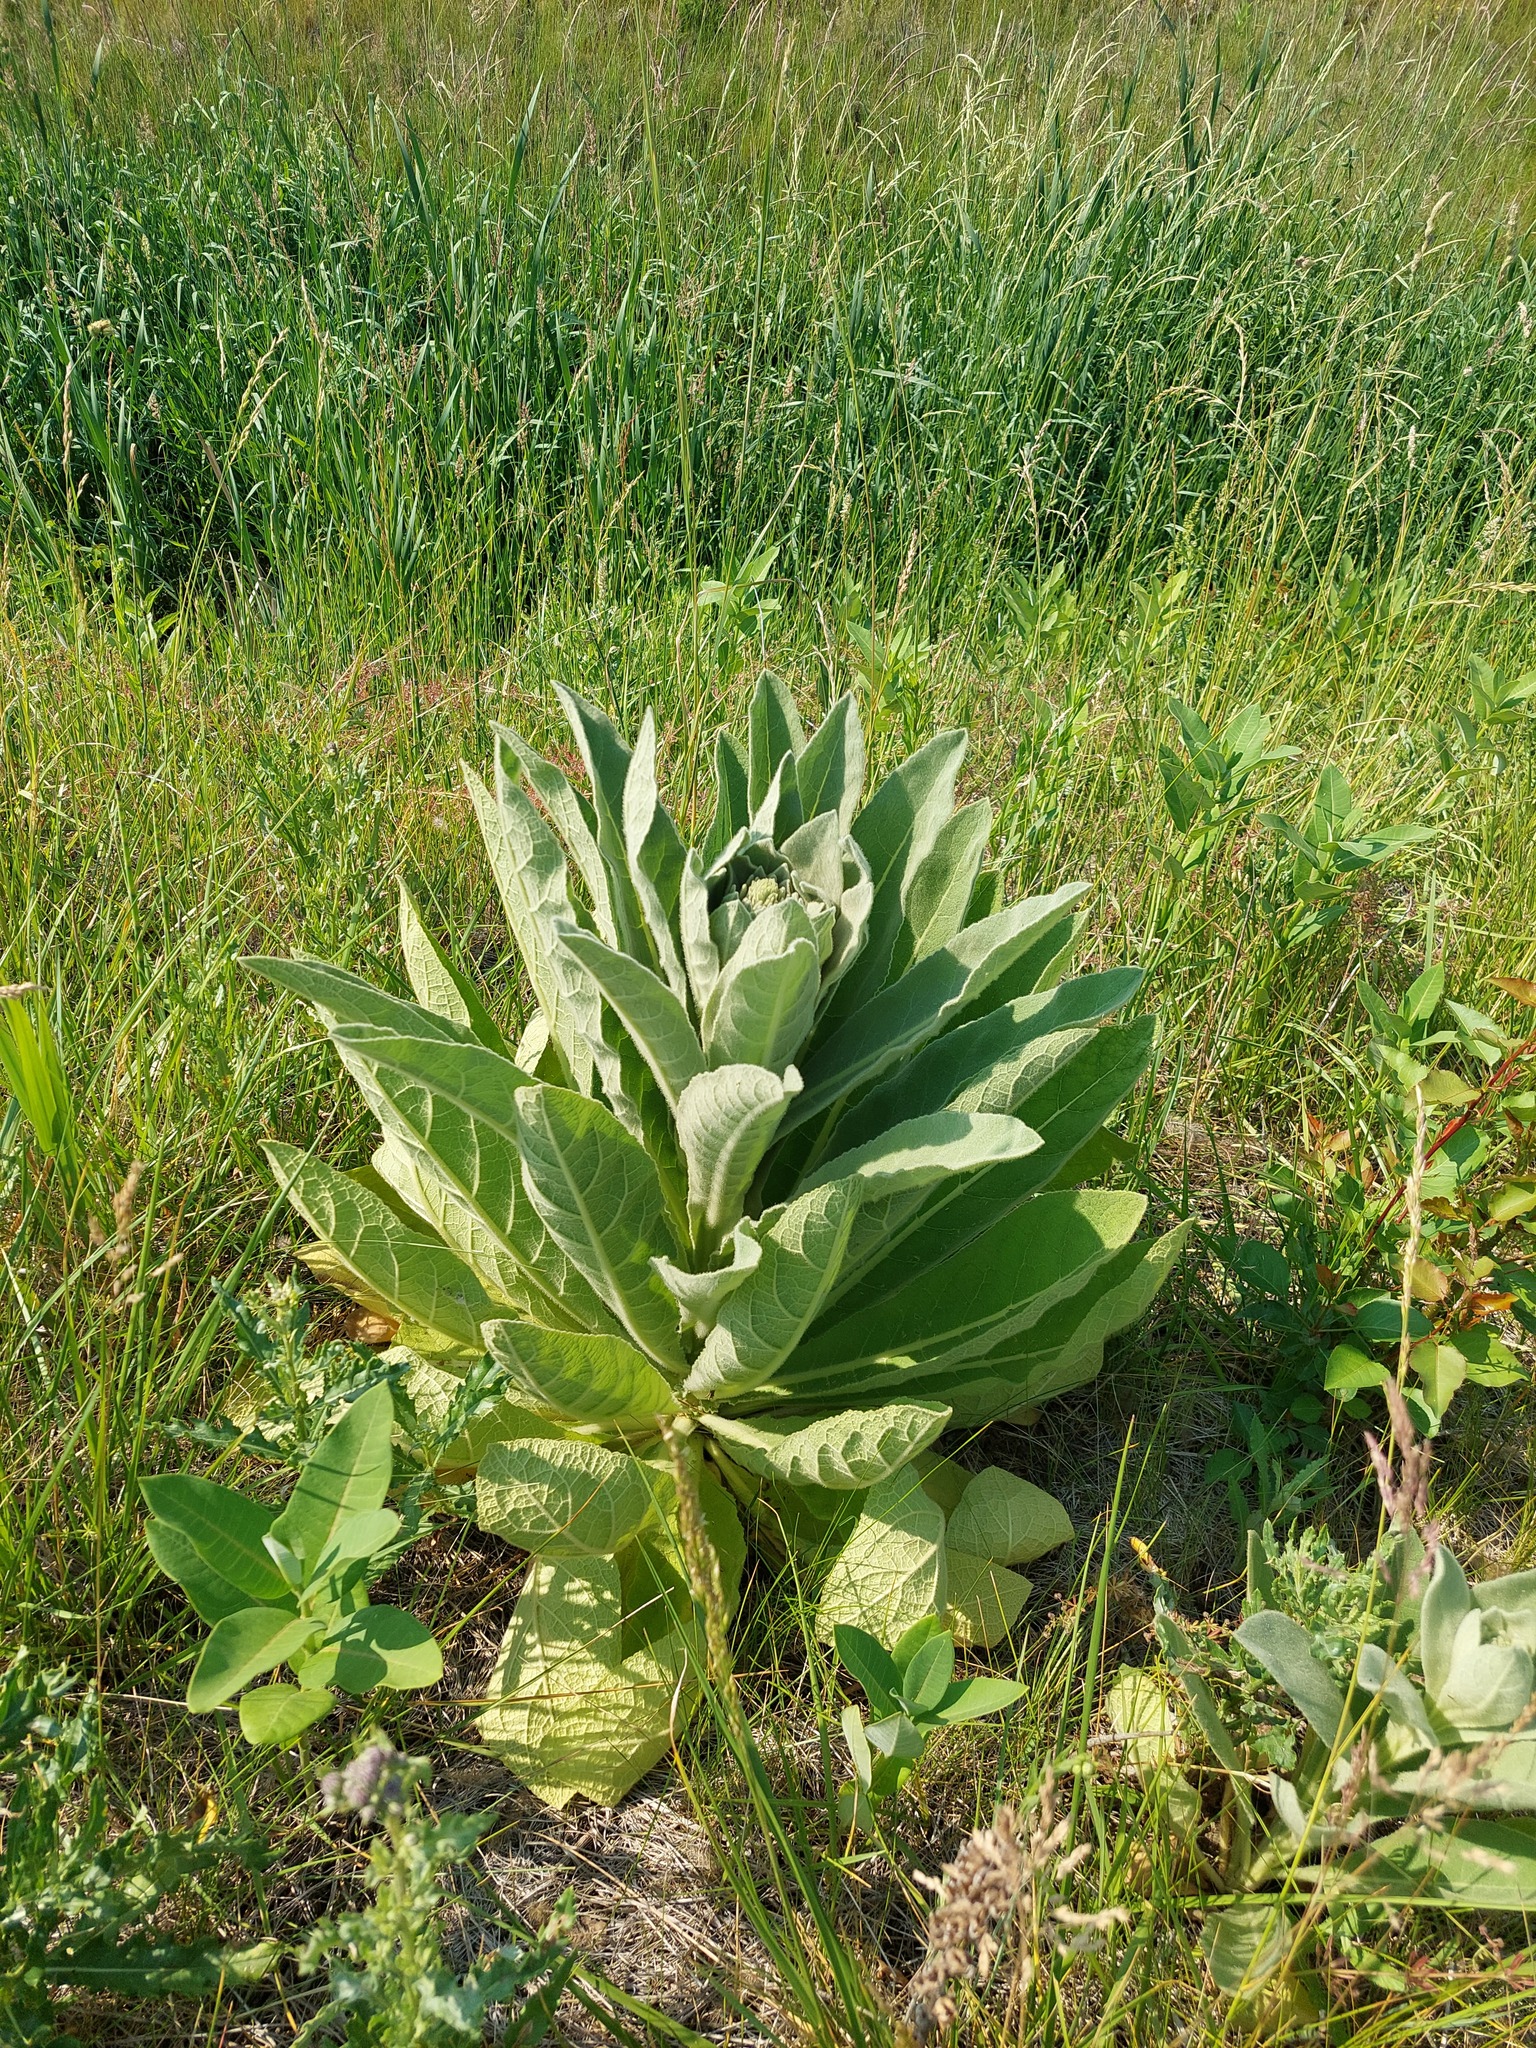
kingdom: Plantae
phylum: Tracheophyta
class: Magnoliopsida
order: Lamiales
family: Scrophulariaceae
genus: Verbascum
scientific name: Verbascum thapsus
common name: Common mullein
